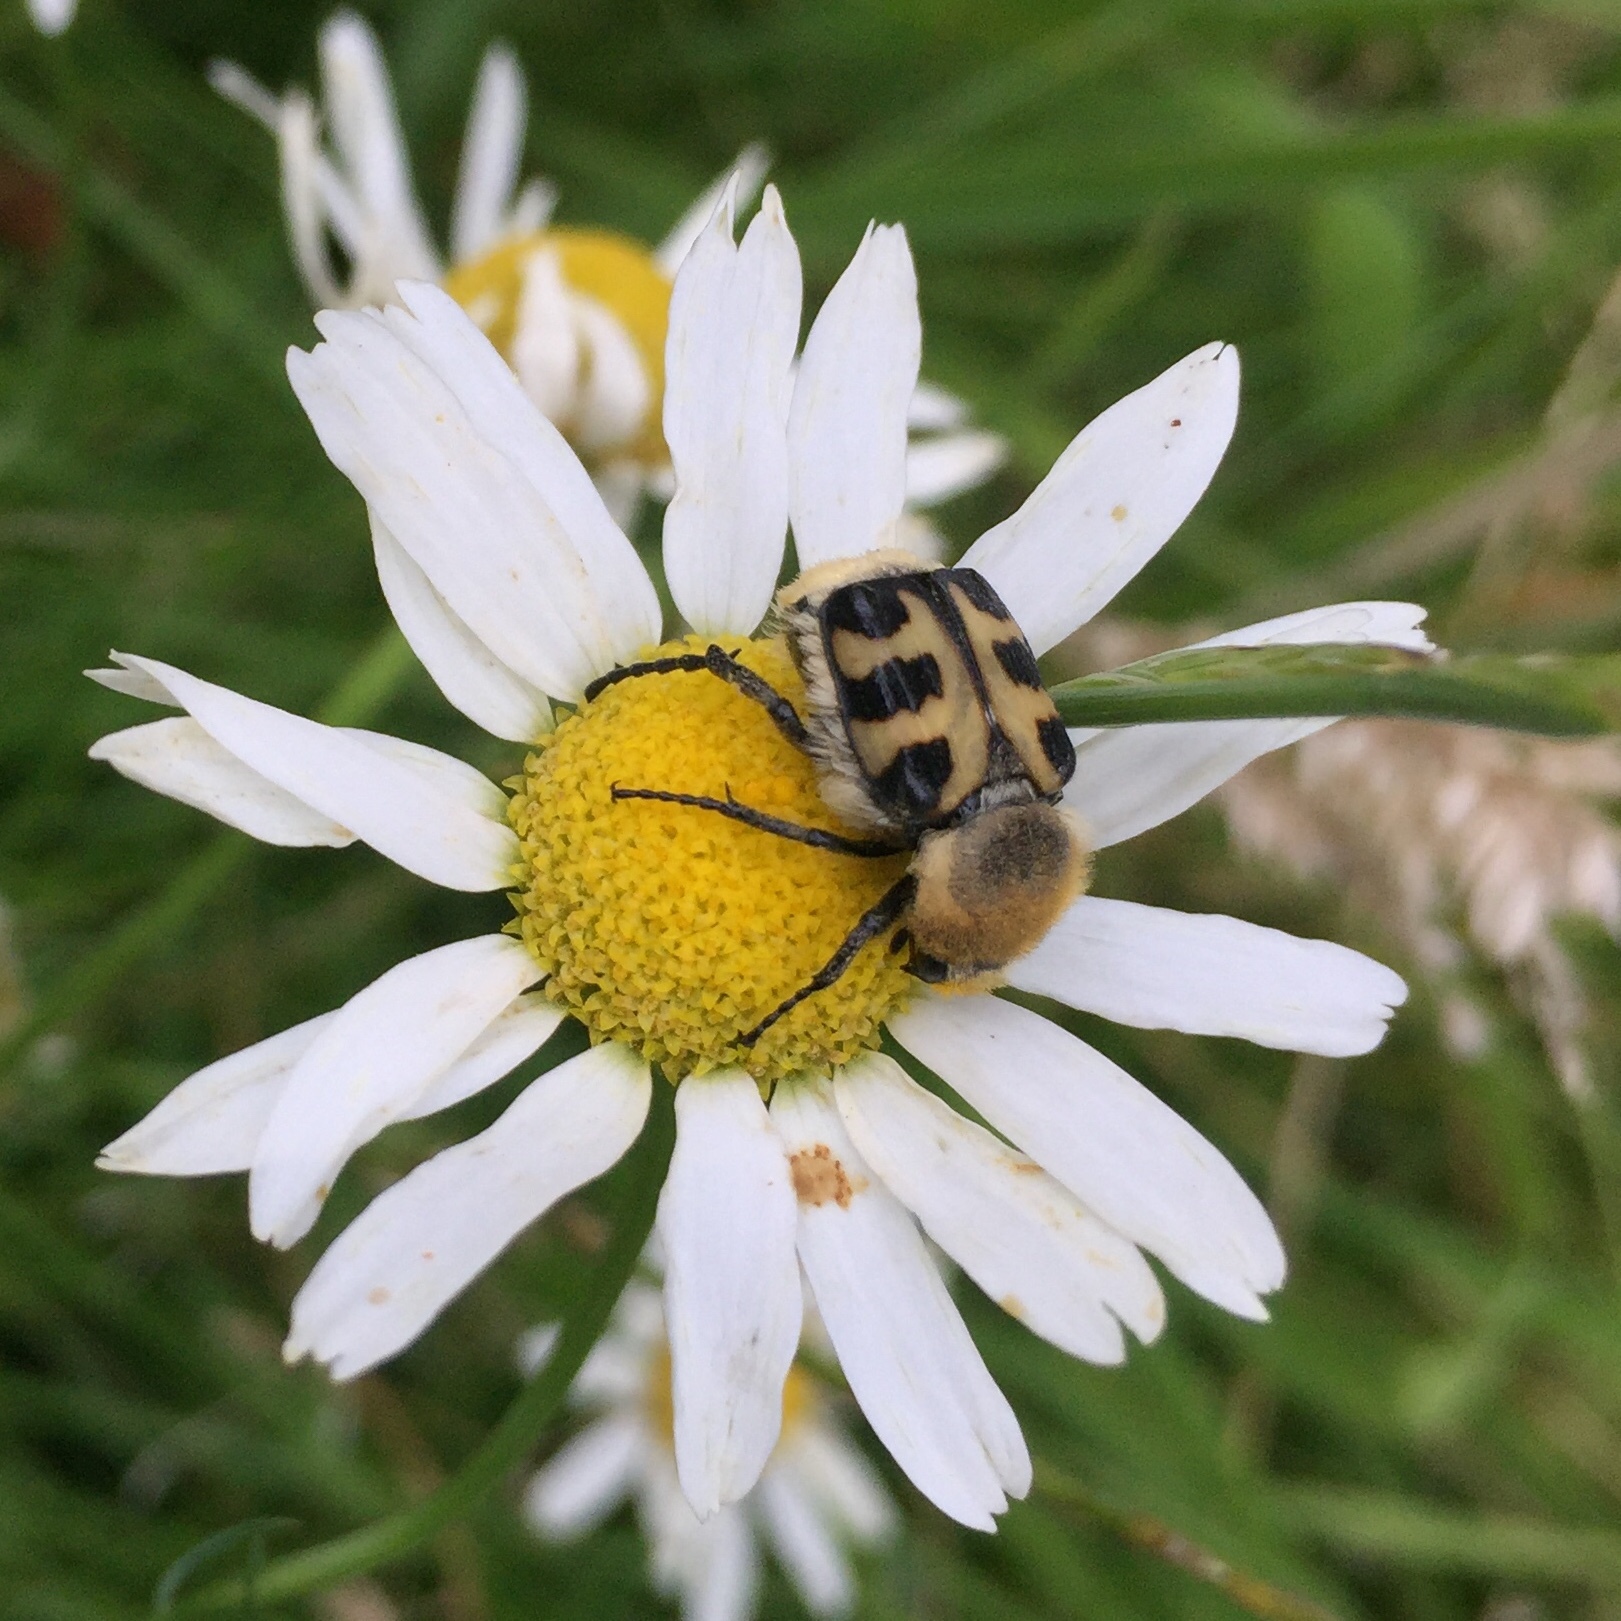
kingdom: Animalia
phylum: Arthropoda
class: Insecta
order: Coleoptera
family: Scarabaeidae
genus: Trichius
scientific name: Trichius gallicus
